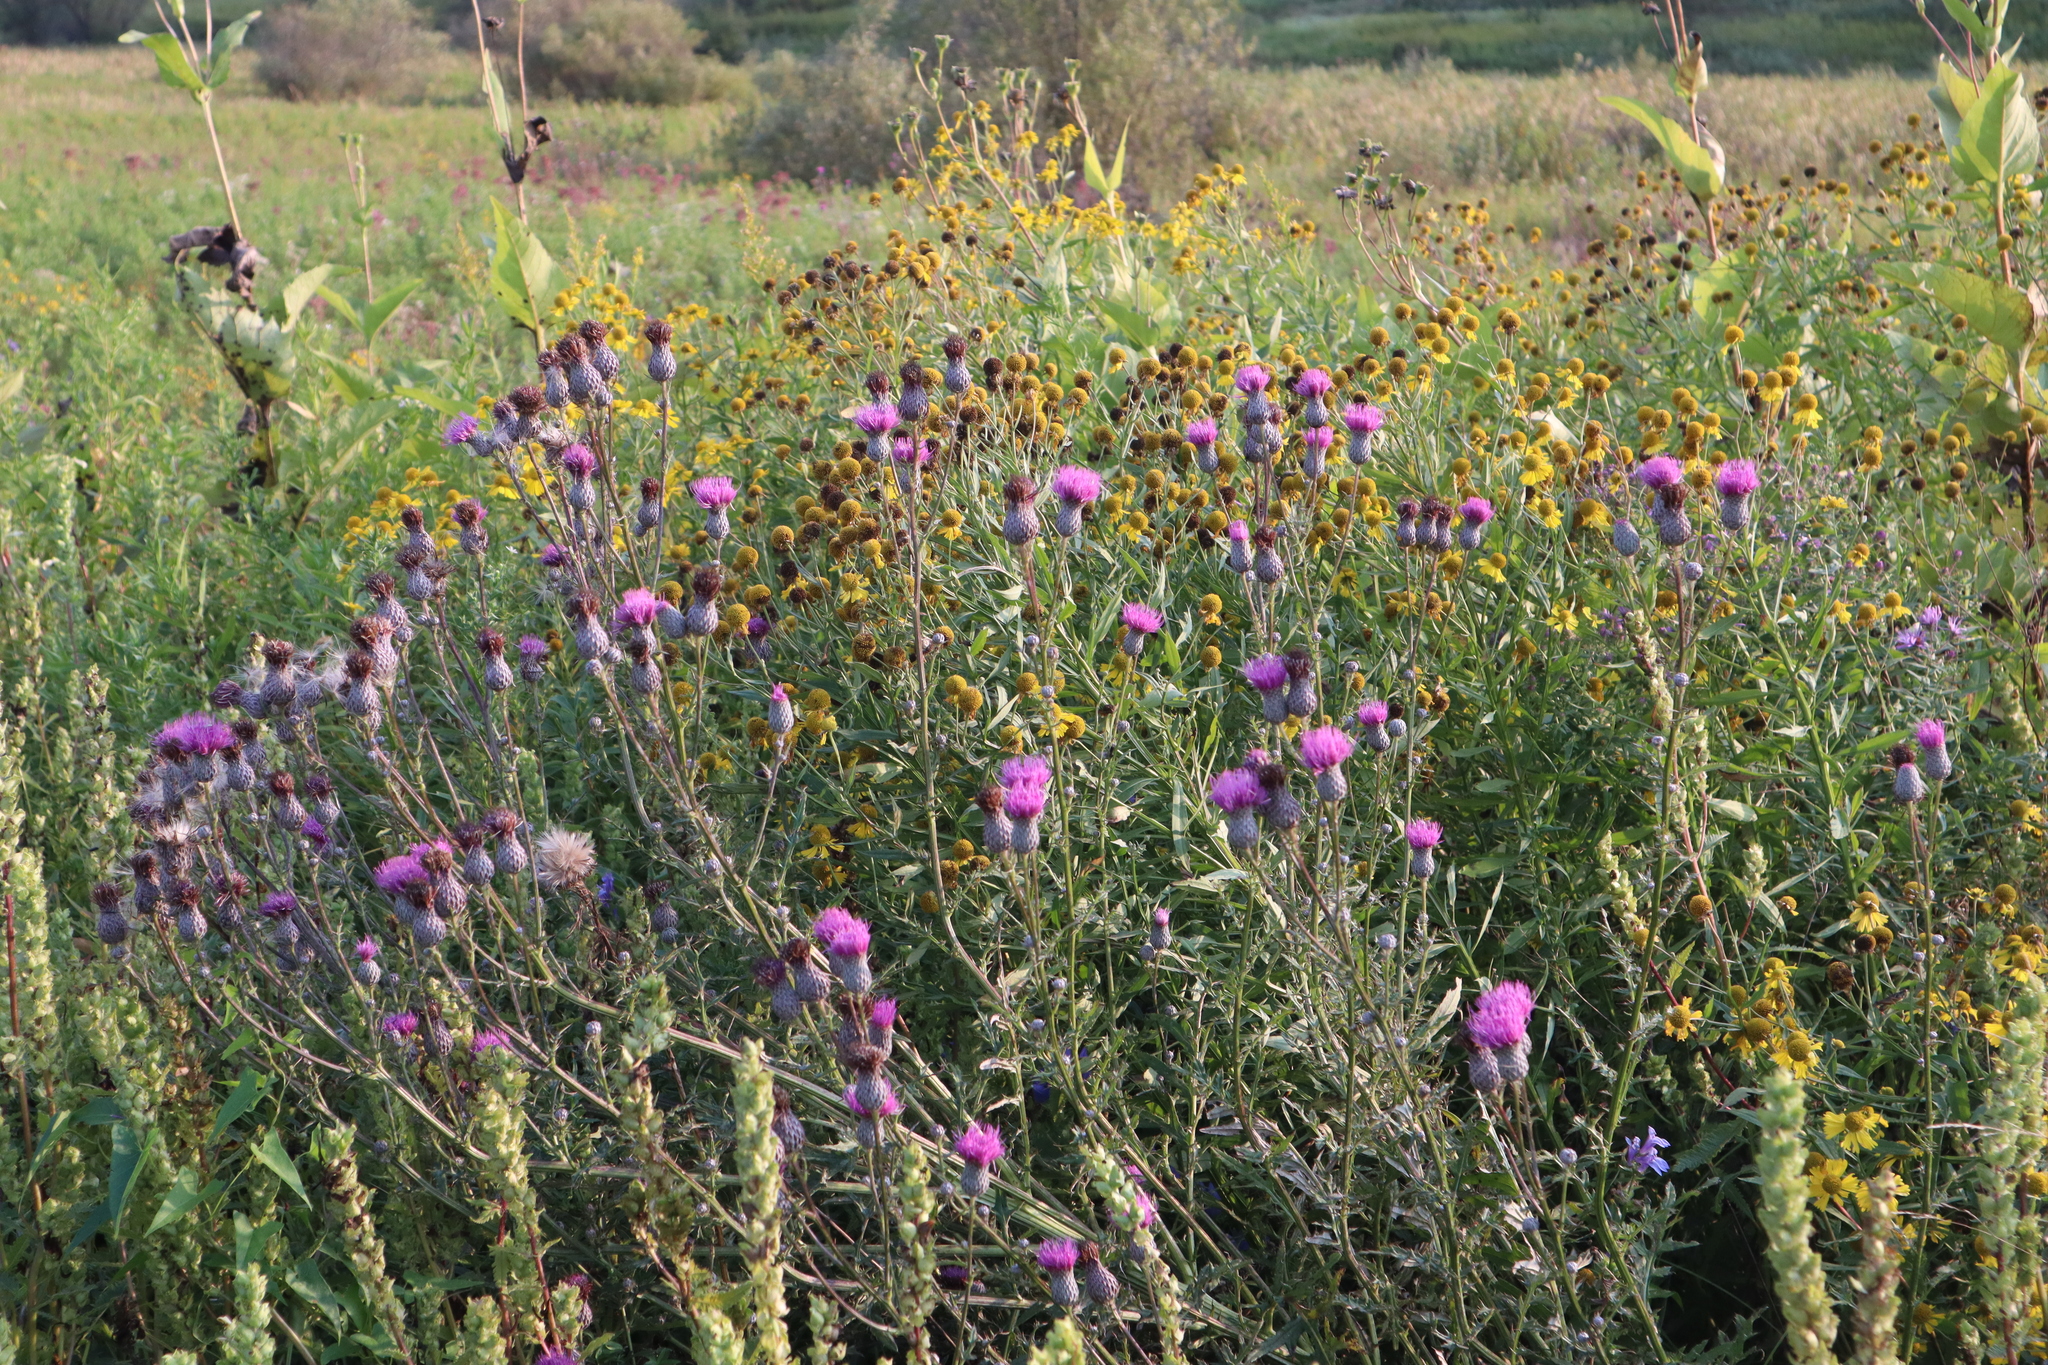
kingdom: Plantae
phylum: Tracheophyta
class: Magnoliopsida
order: Asterales
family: Asteraceae
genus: Cirsium
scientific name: Cirsium muticum
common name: Dunce-nettle
